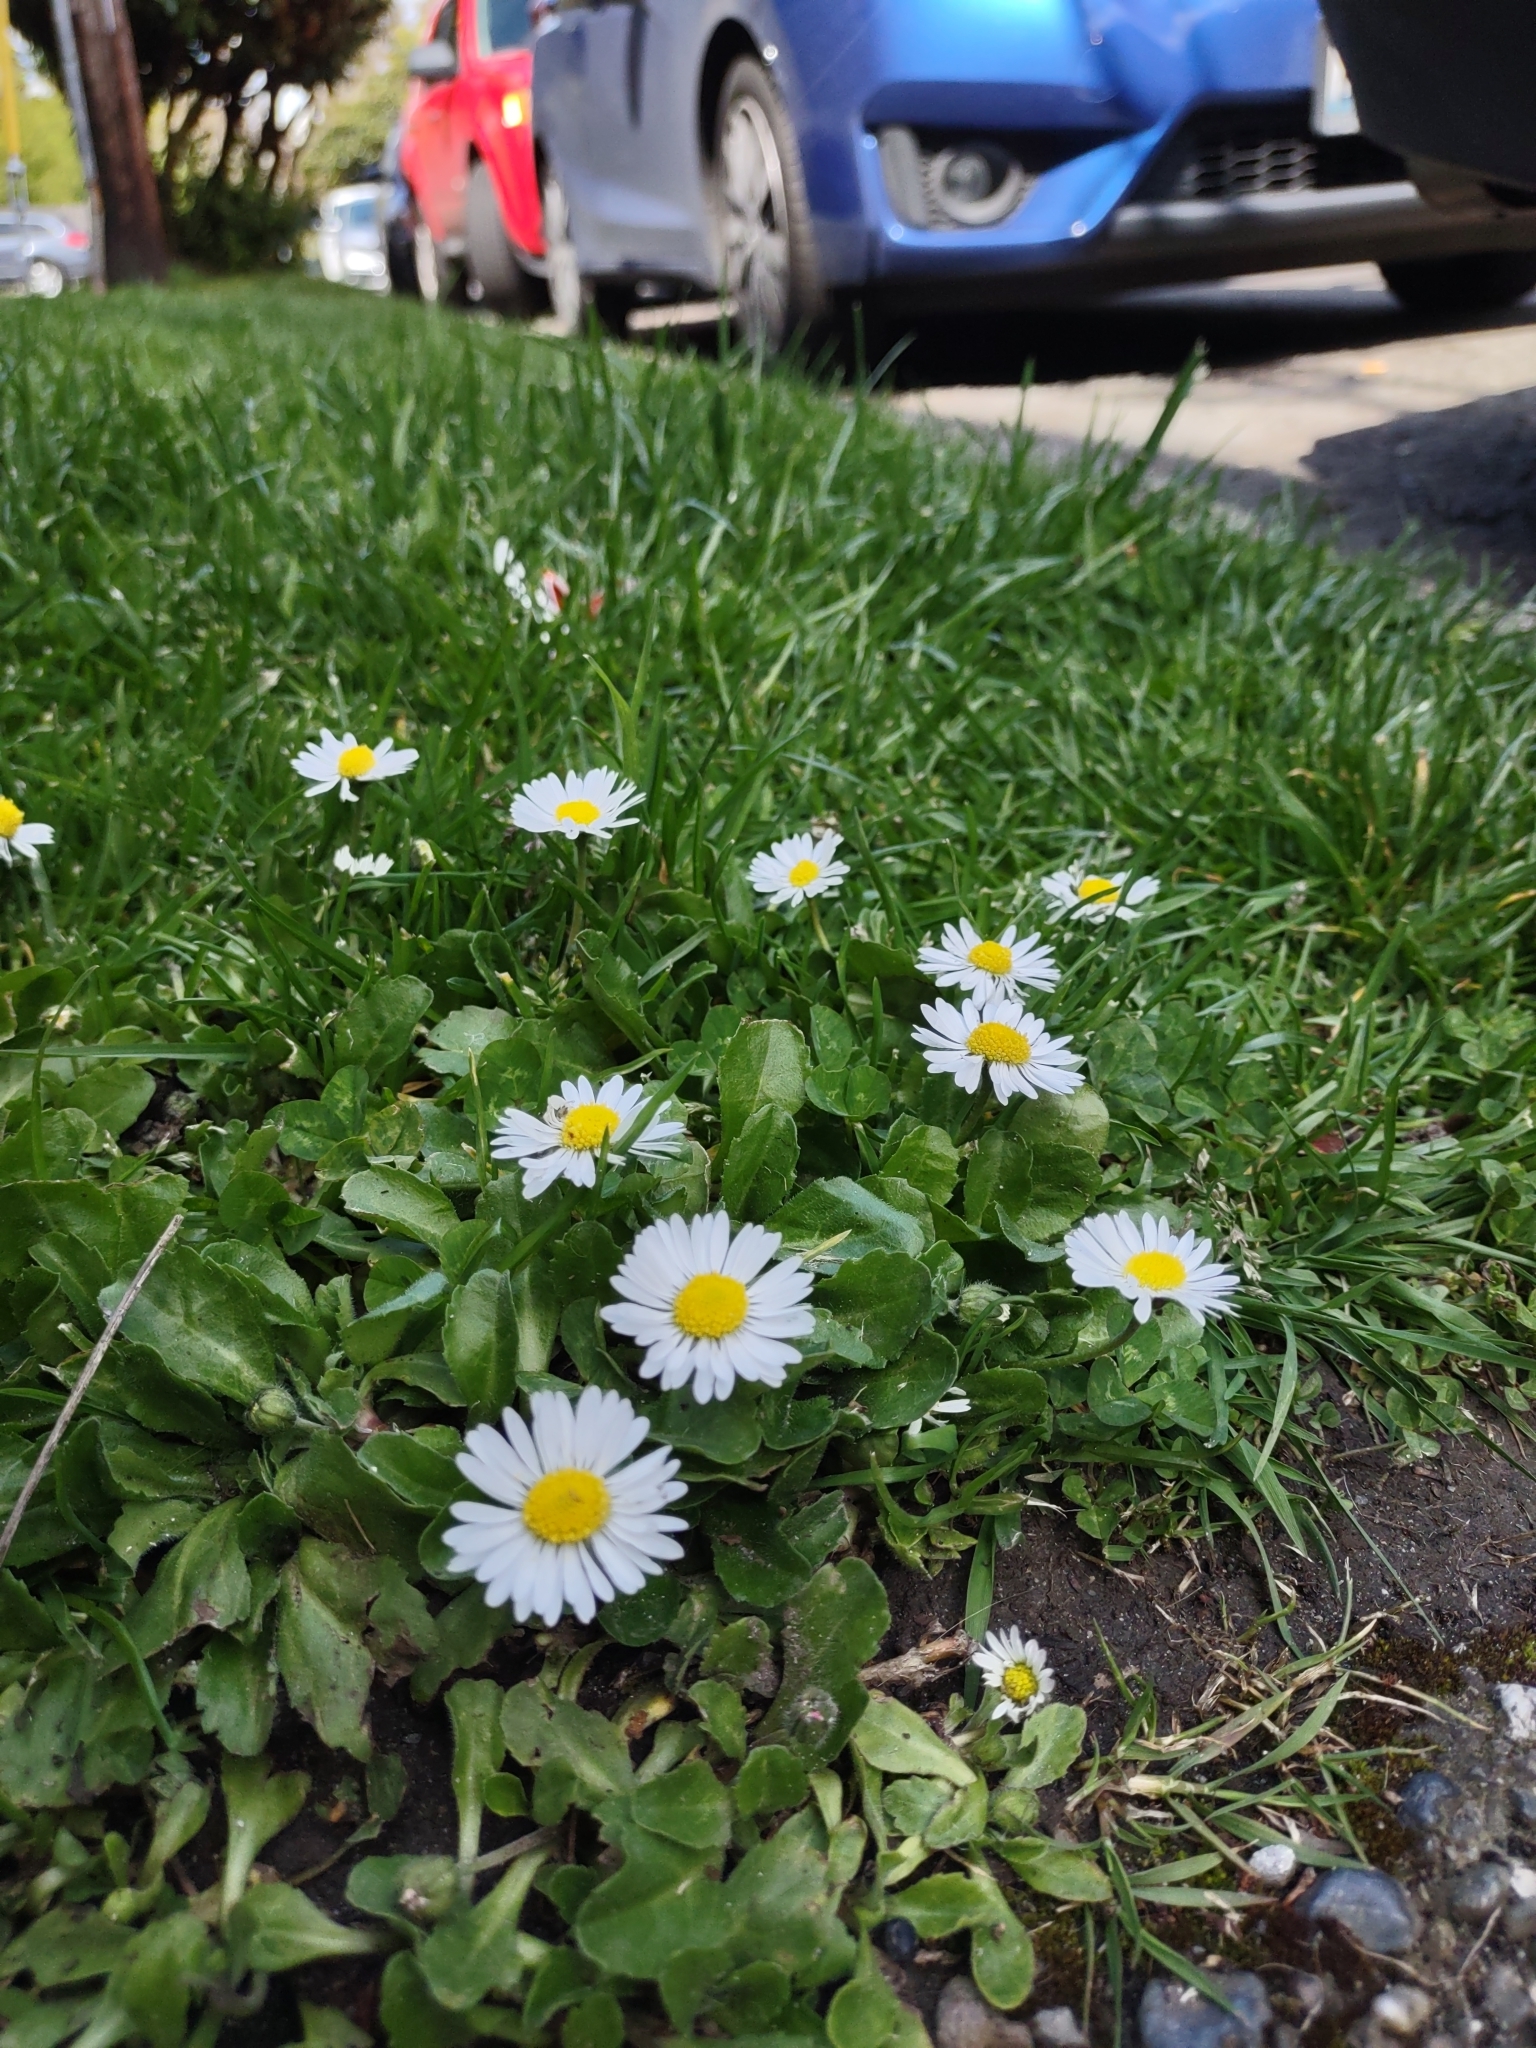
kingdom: Plantae
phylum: Tracheophyta
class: Magnoliopsida
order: Asterales
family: Asteraceae
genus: Bellis
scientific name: Bellis perennis
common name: Lawndaisy
